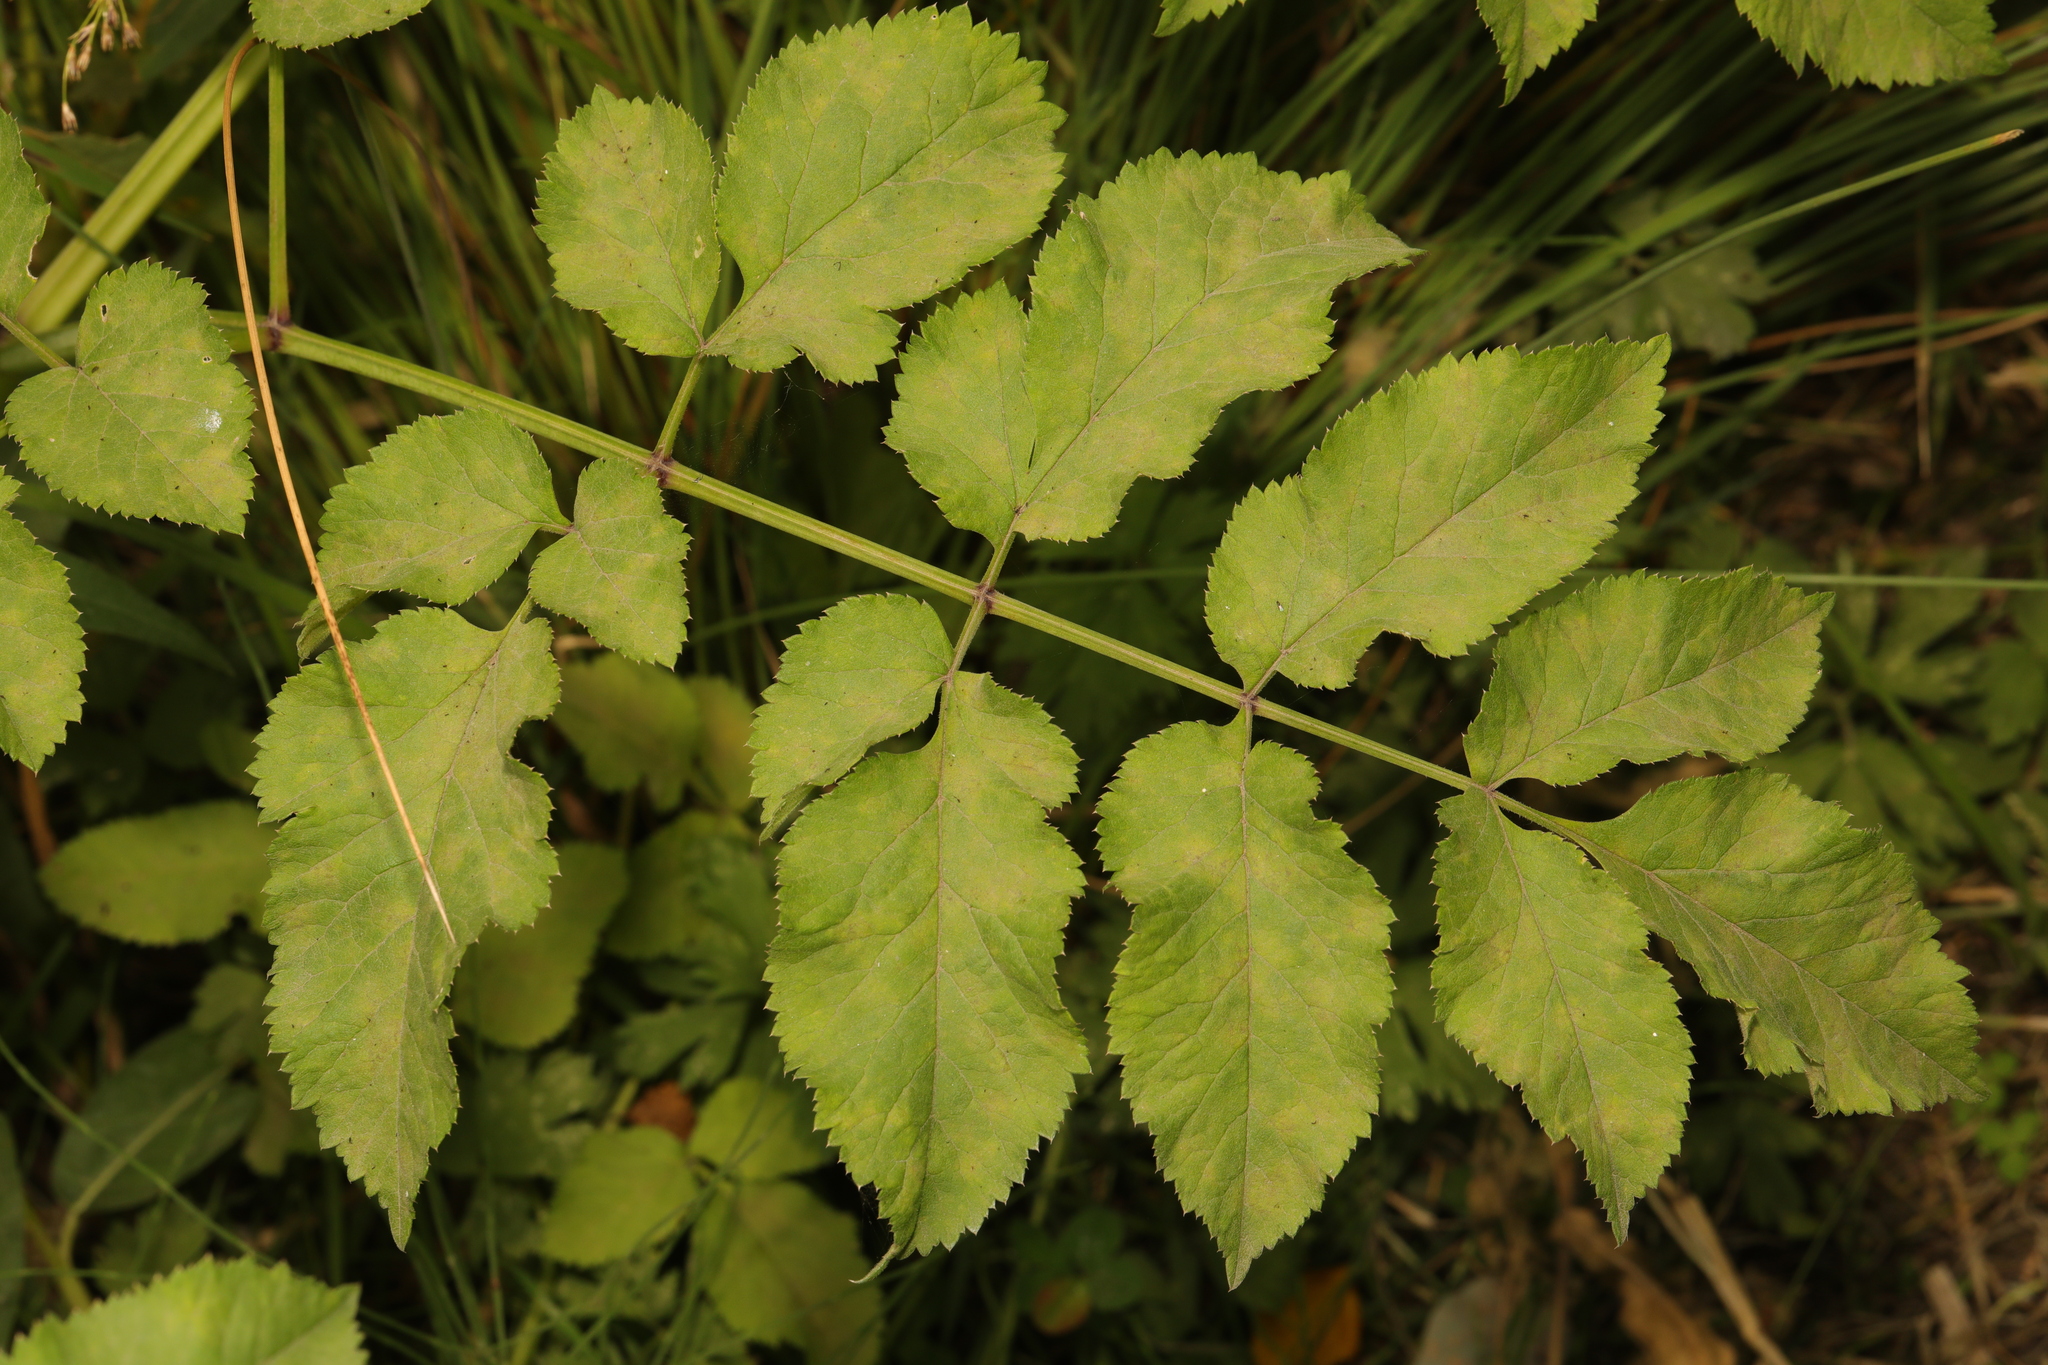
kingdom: Plantae
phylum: Tracheophyta
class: Magnoliopsida
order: Apiales
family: Apiaceae
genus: Angelica
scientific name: Angelica sylvestris
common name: Wild angelica
